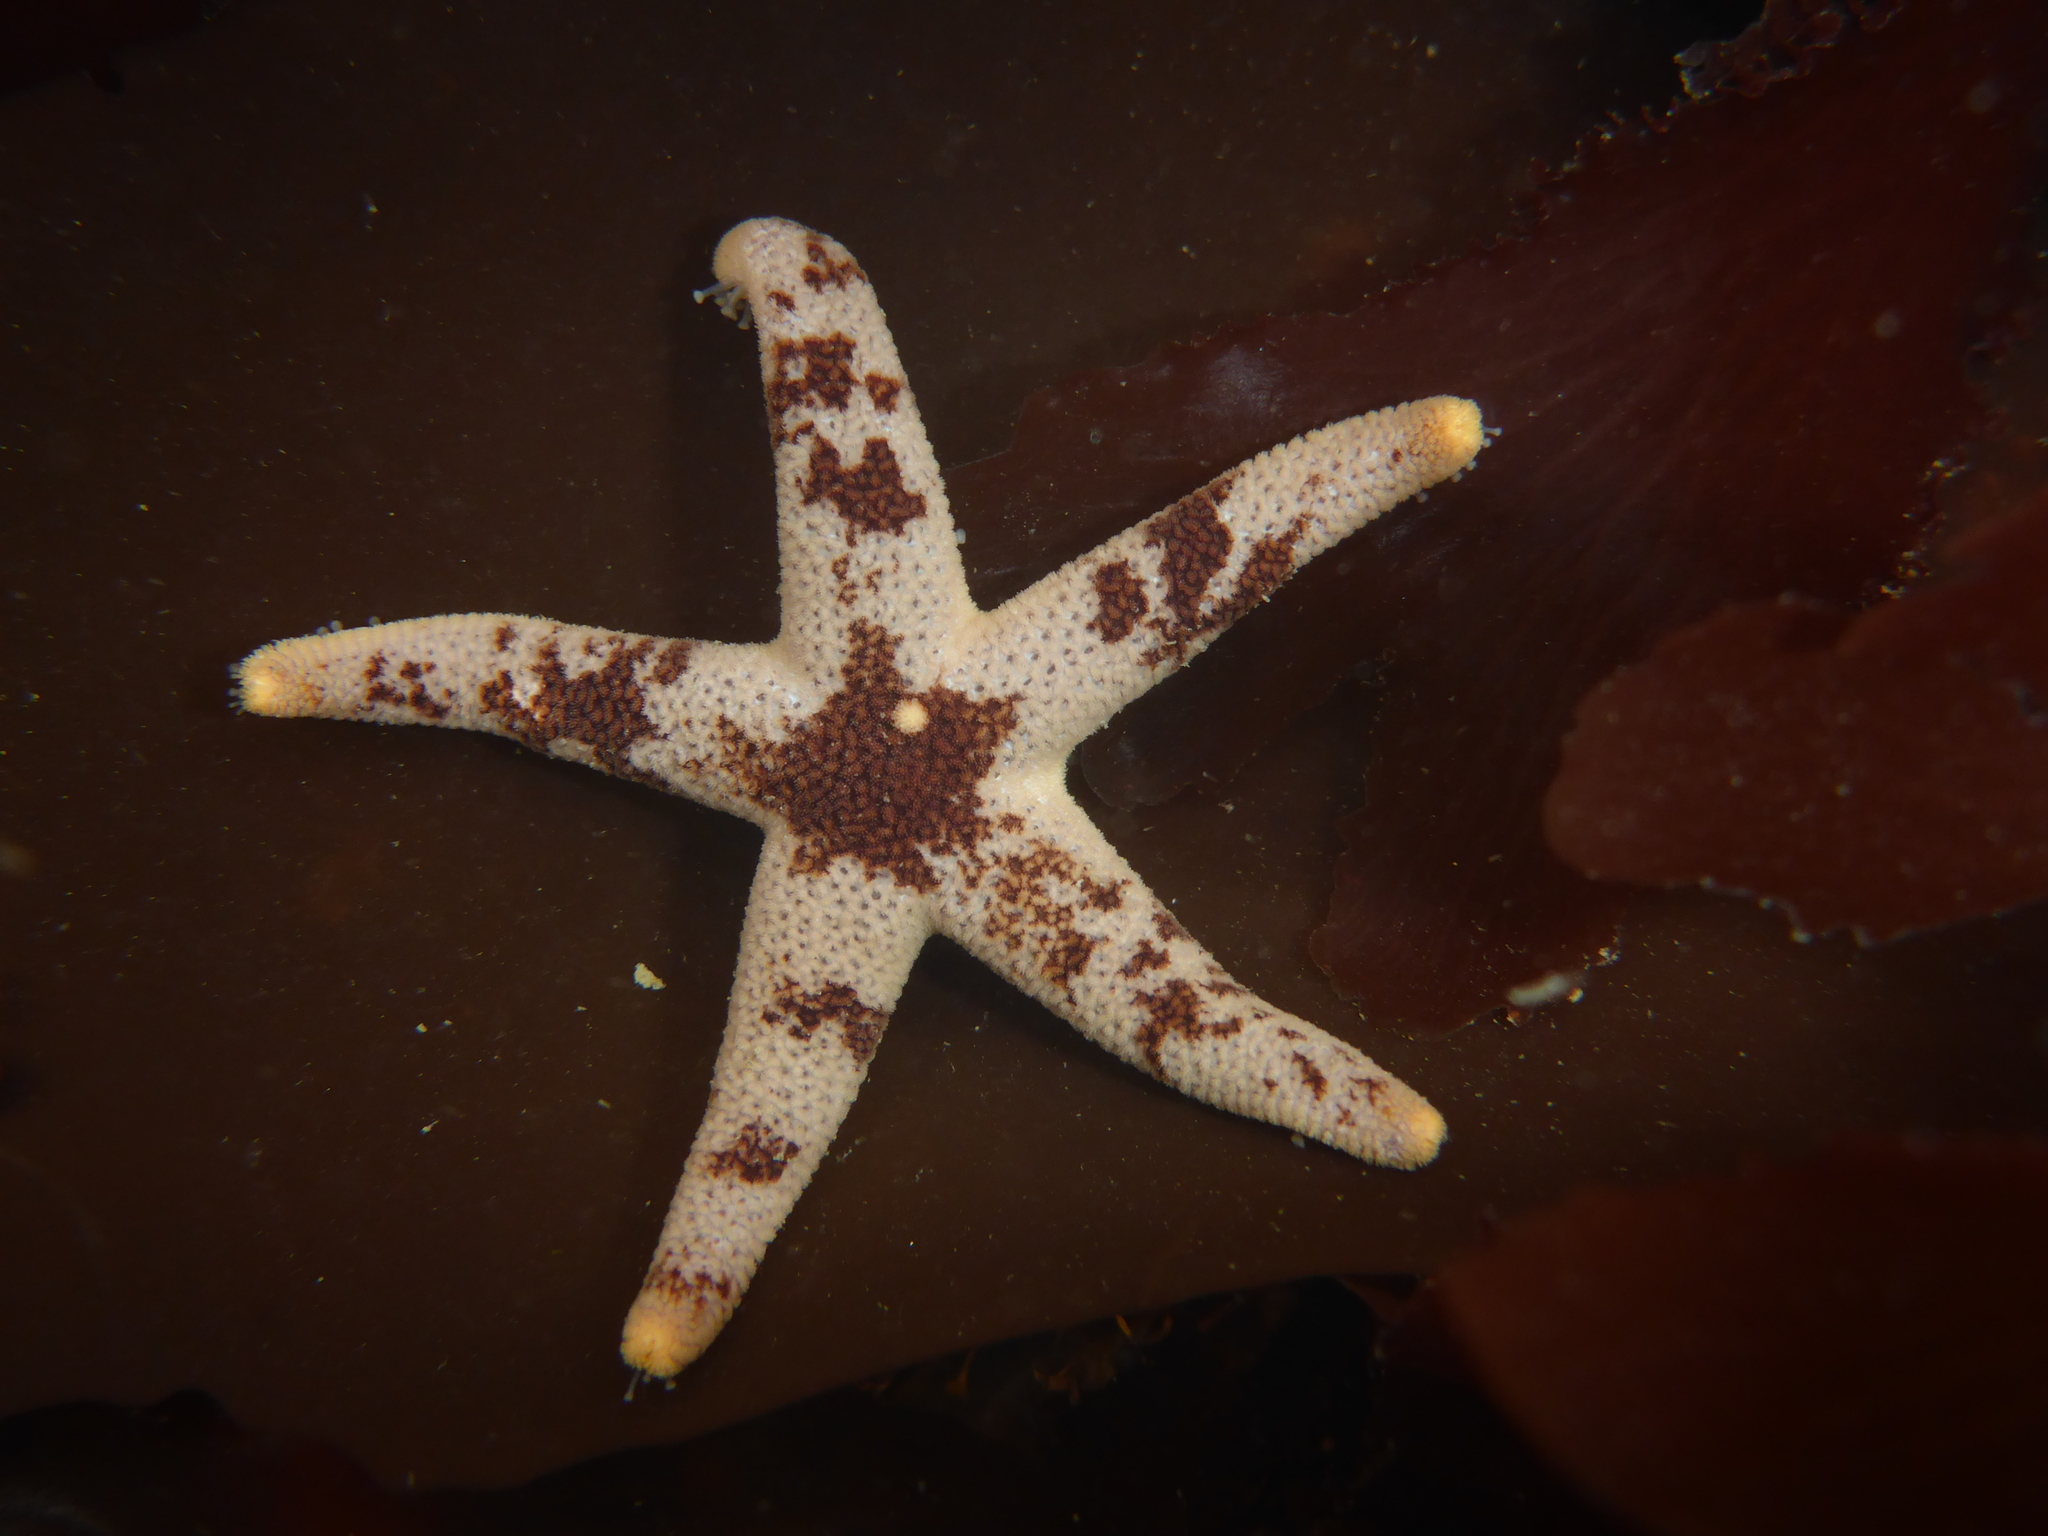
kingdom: Animalia
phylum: Echinodermata
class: Asteroidea
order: Spinulosida
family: Echinasteridae
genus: Henricia
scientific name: Henricia pumila
